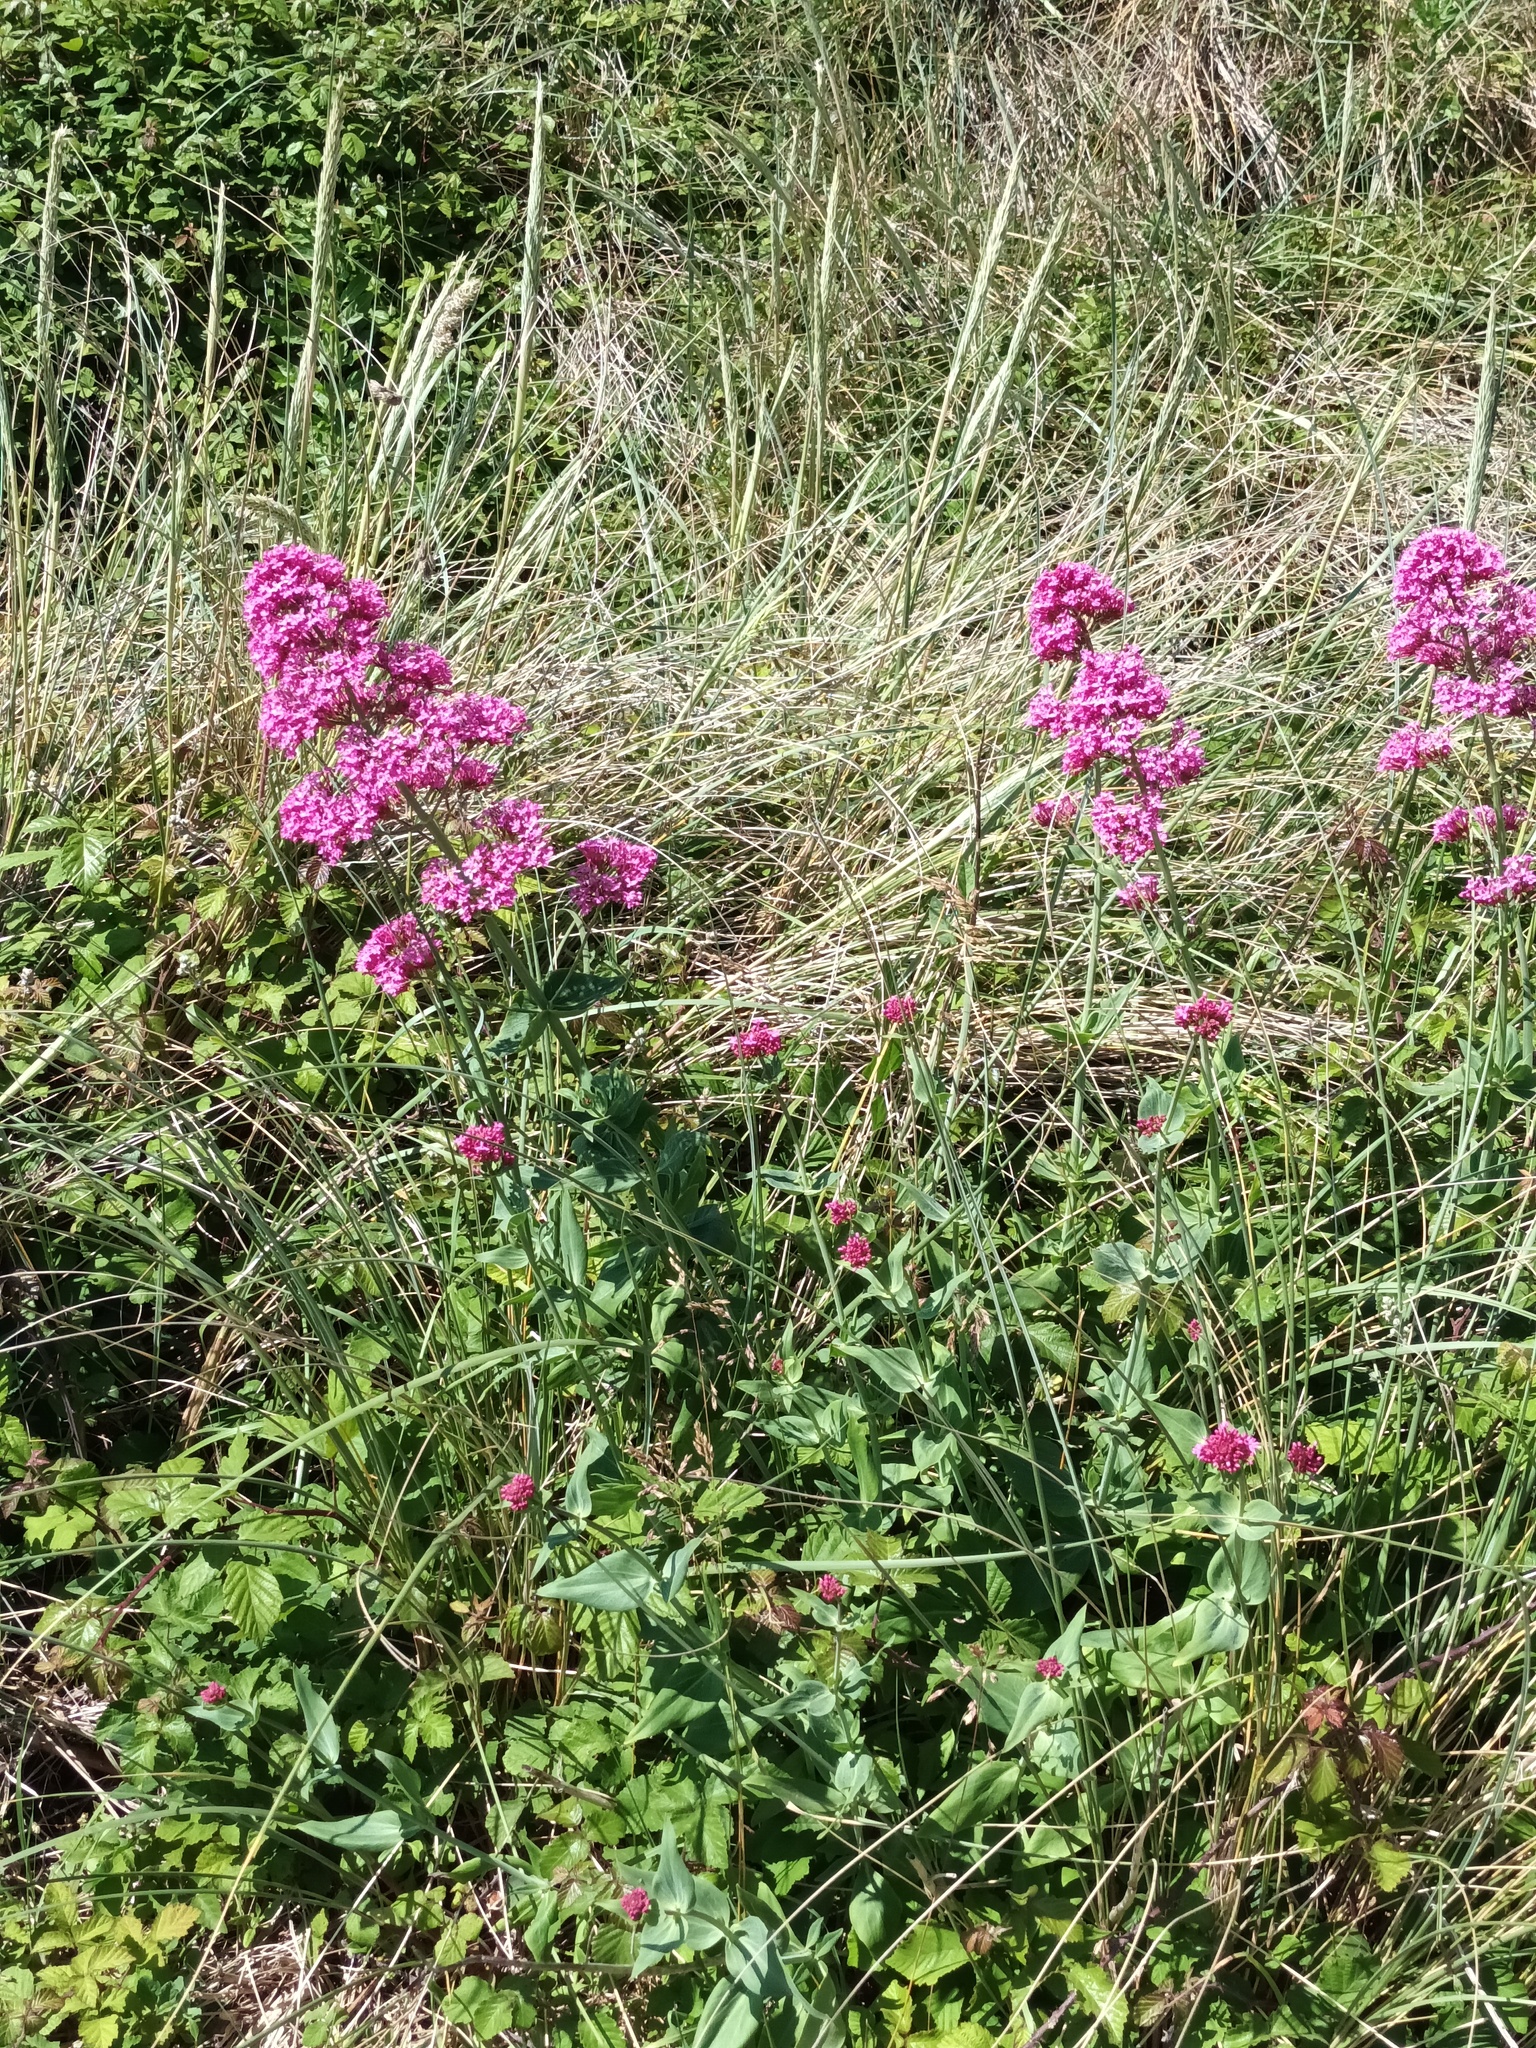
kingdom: Plantae
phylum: Tracheophyta
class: Magnoliopsida
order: Dipsacales
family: Caprifoliaceae
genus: Centranthus
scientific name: Centranthus ruber
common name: Red valerian
